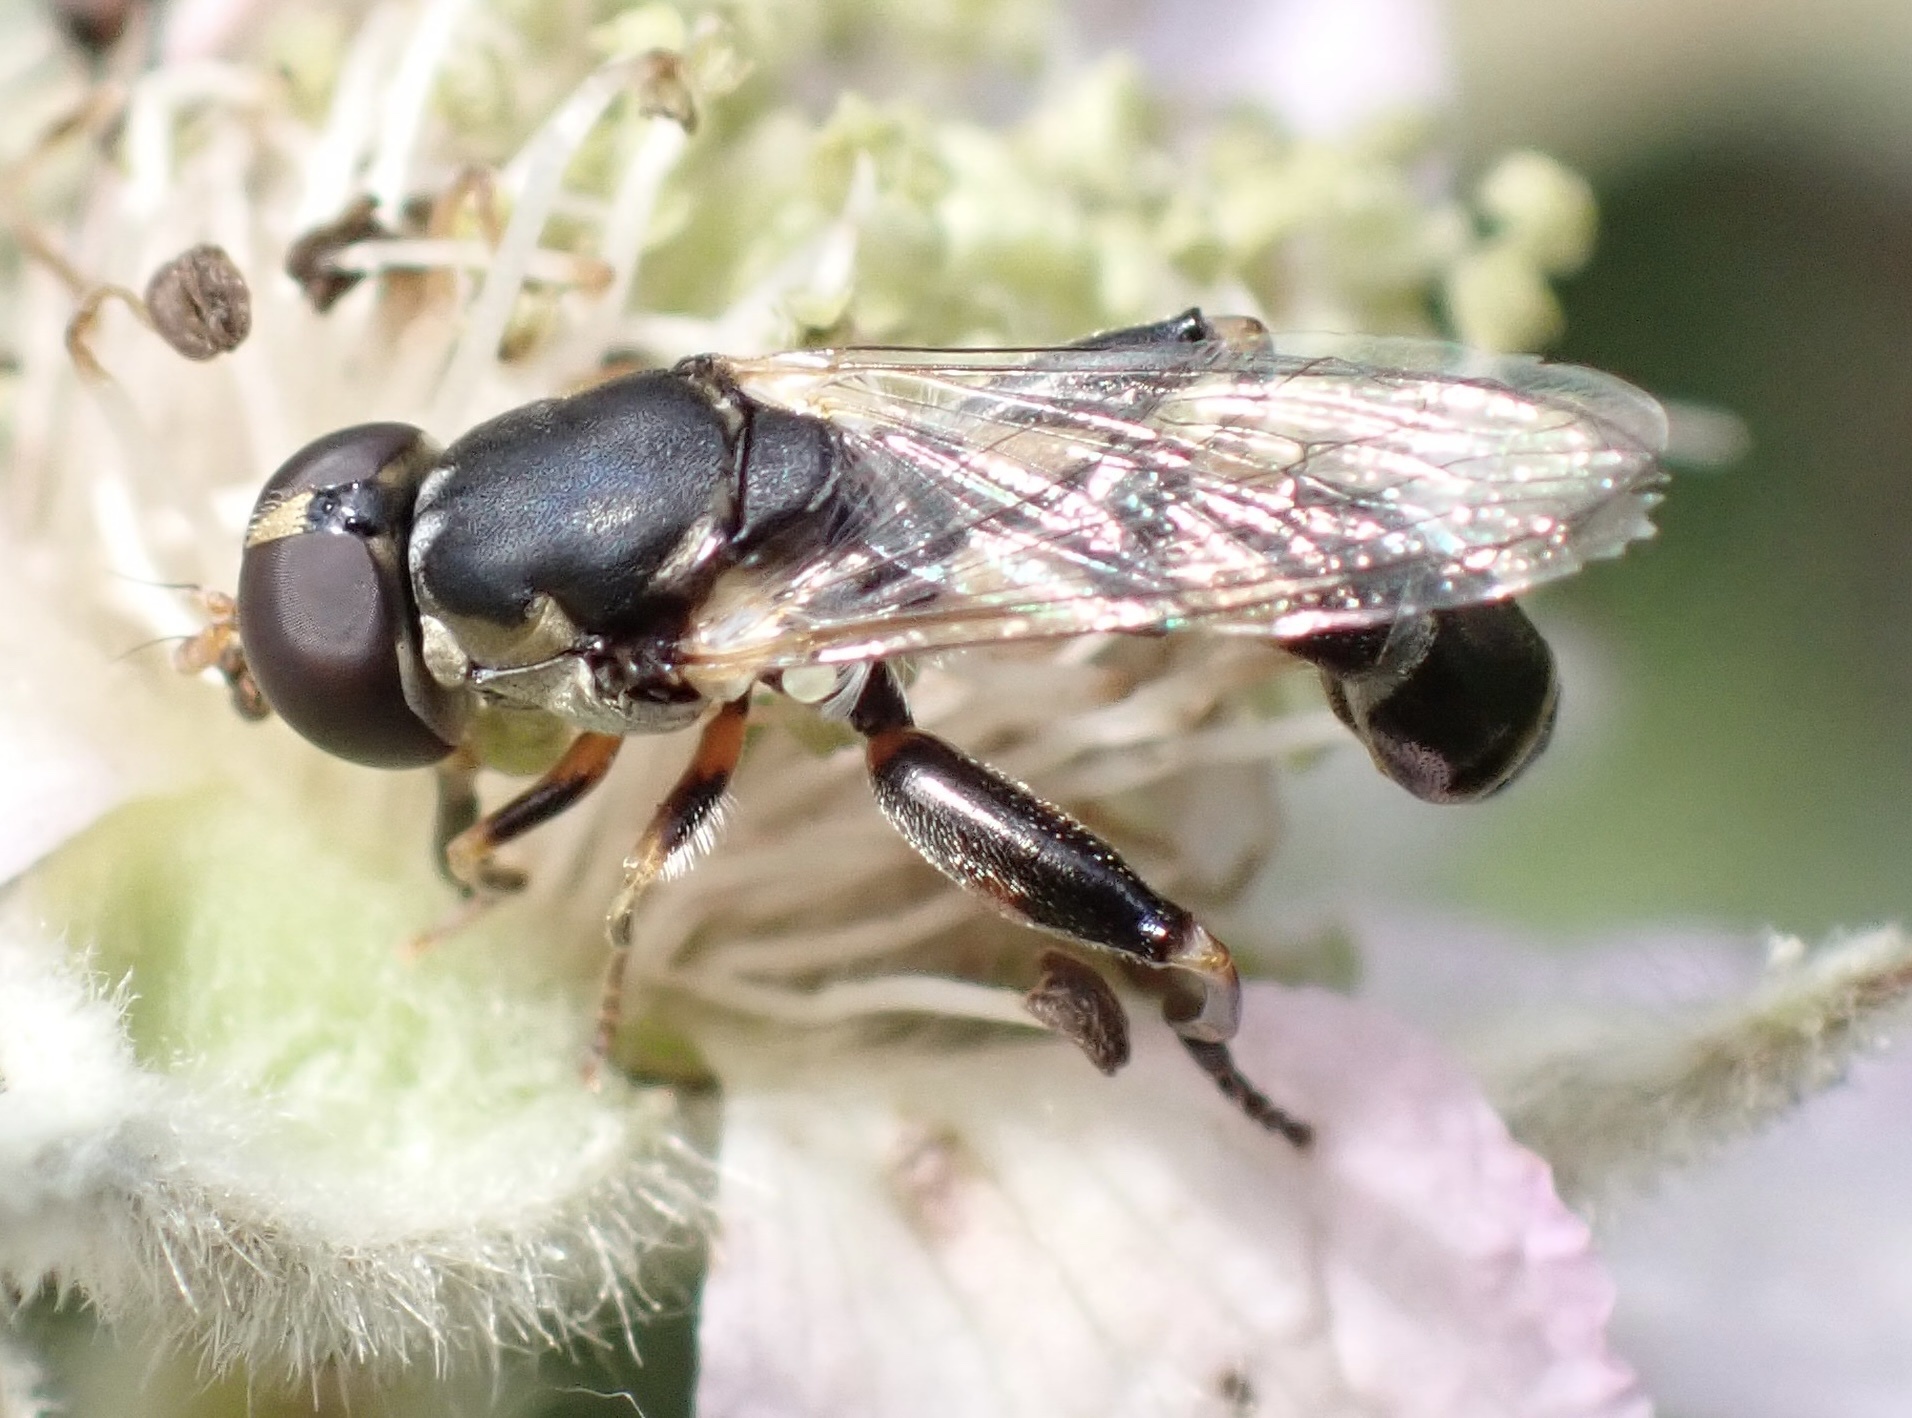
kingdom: Animalia
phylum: Arthropoda
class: Insecta
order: Diptera
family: Syrphidae
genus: Syritta
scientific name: Syritta pipiens
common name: Hover fly
